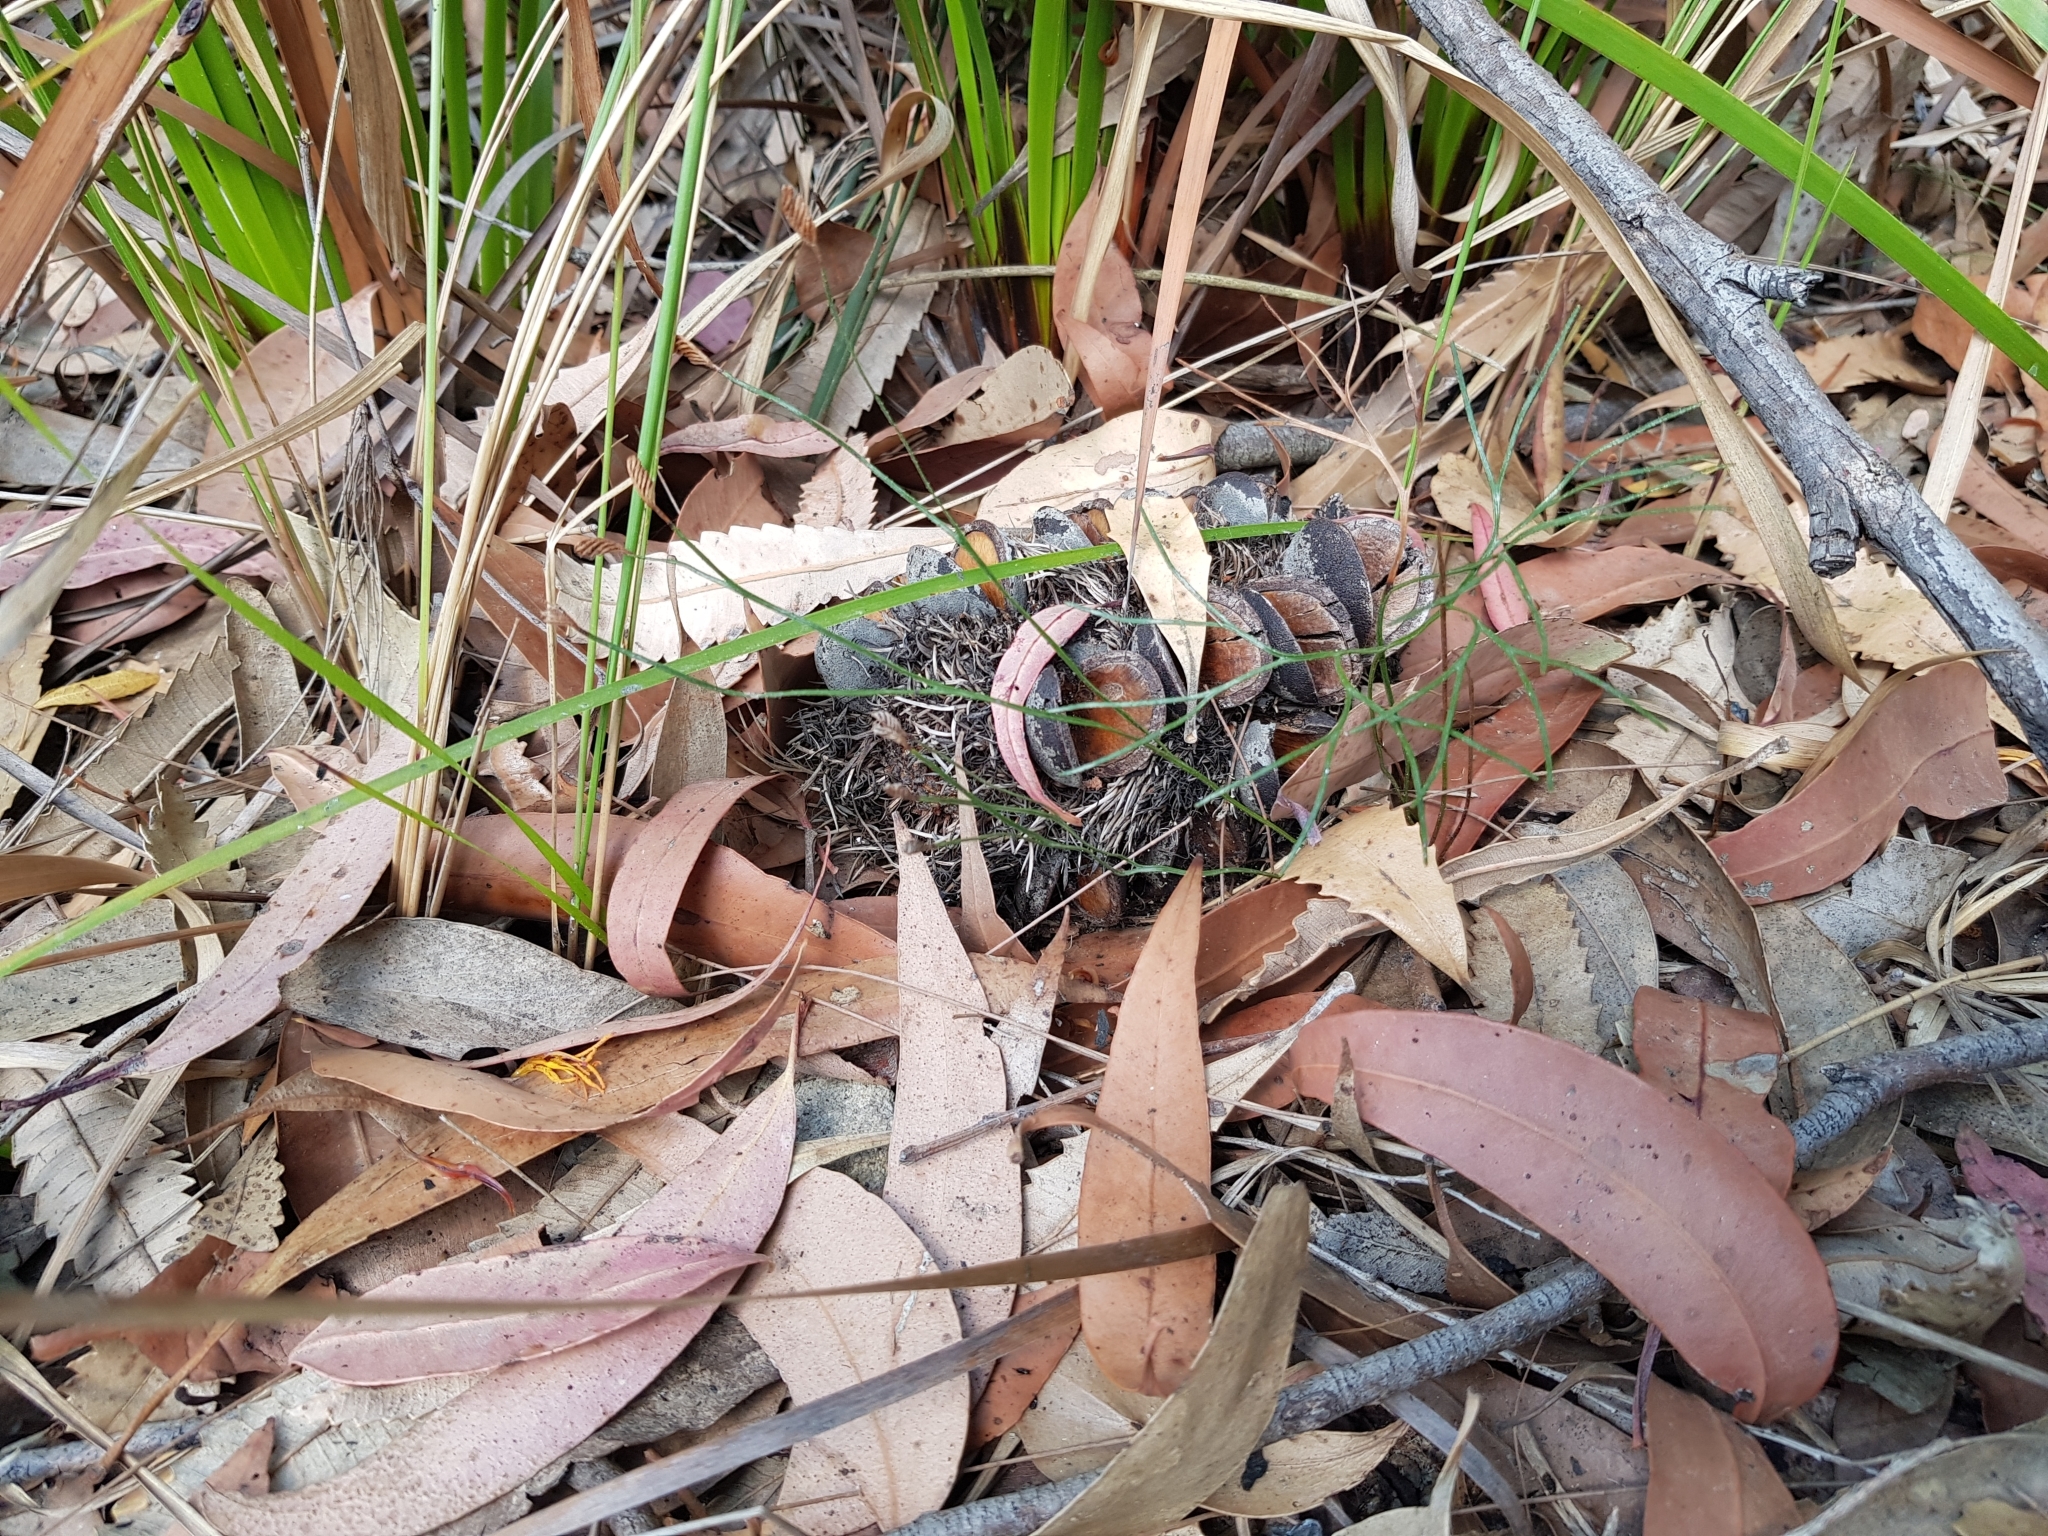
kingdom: Plantae
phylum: Tracheophyta
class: Polypodiopsida
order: Schizaeales
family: Schizaeaceae
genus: Schizaea
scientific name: Schizaea bifida
